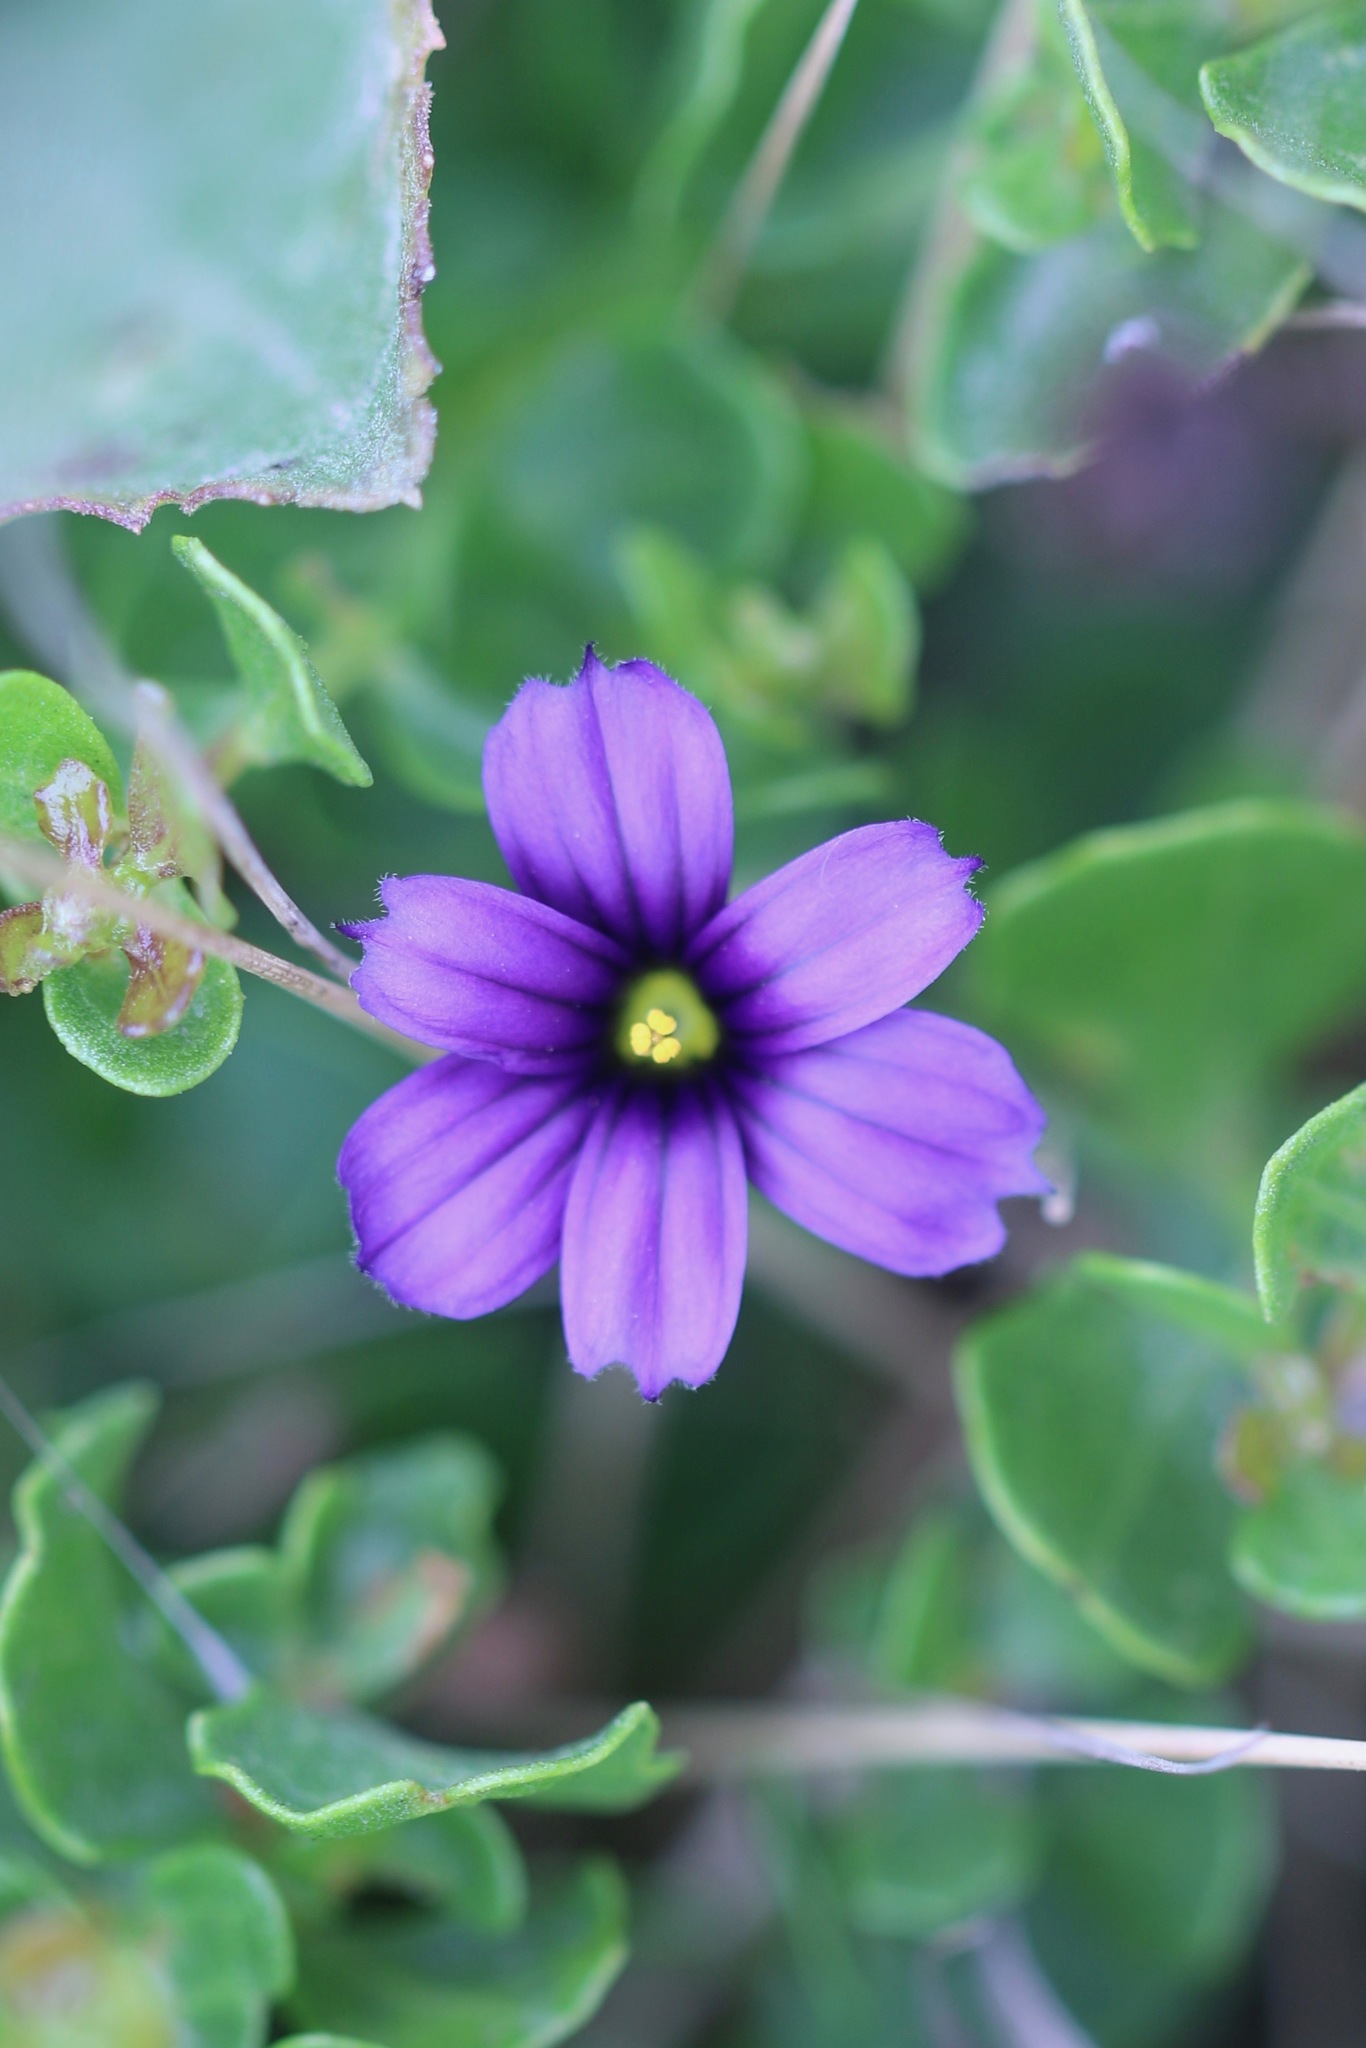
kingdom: Plantae
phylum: Tracheophyta
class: Liliopsida
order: Asparagales
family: Iridaceae
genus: Sisyrinchium
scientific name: Sisyrinchium bellum
